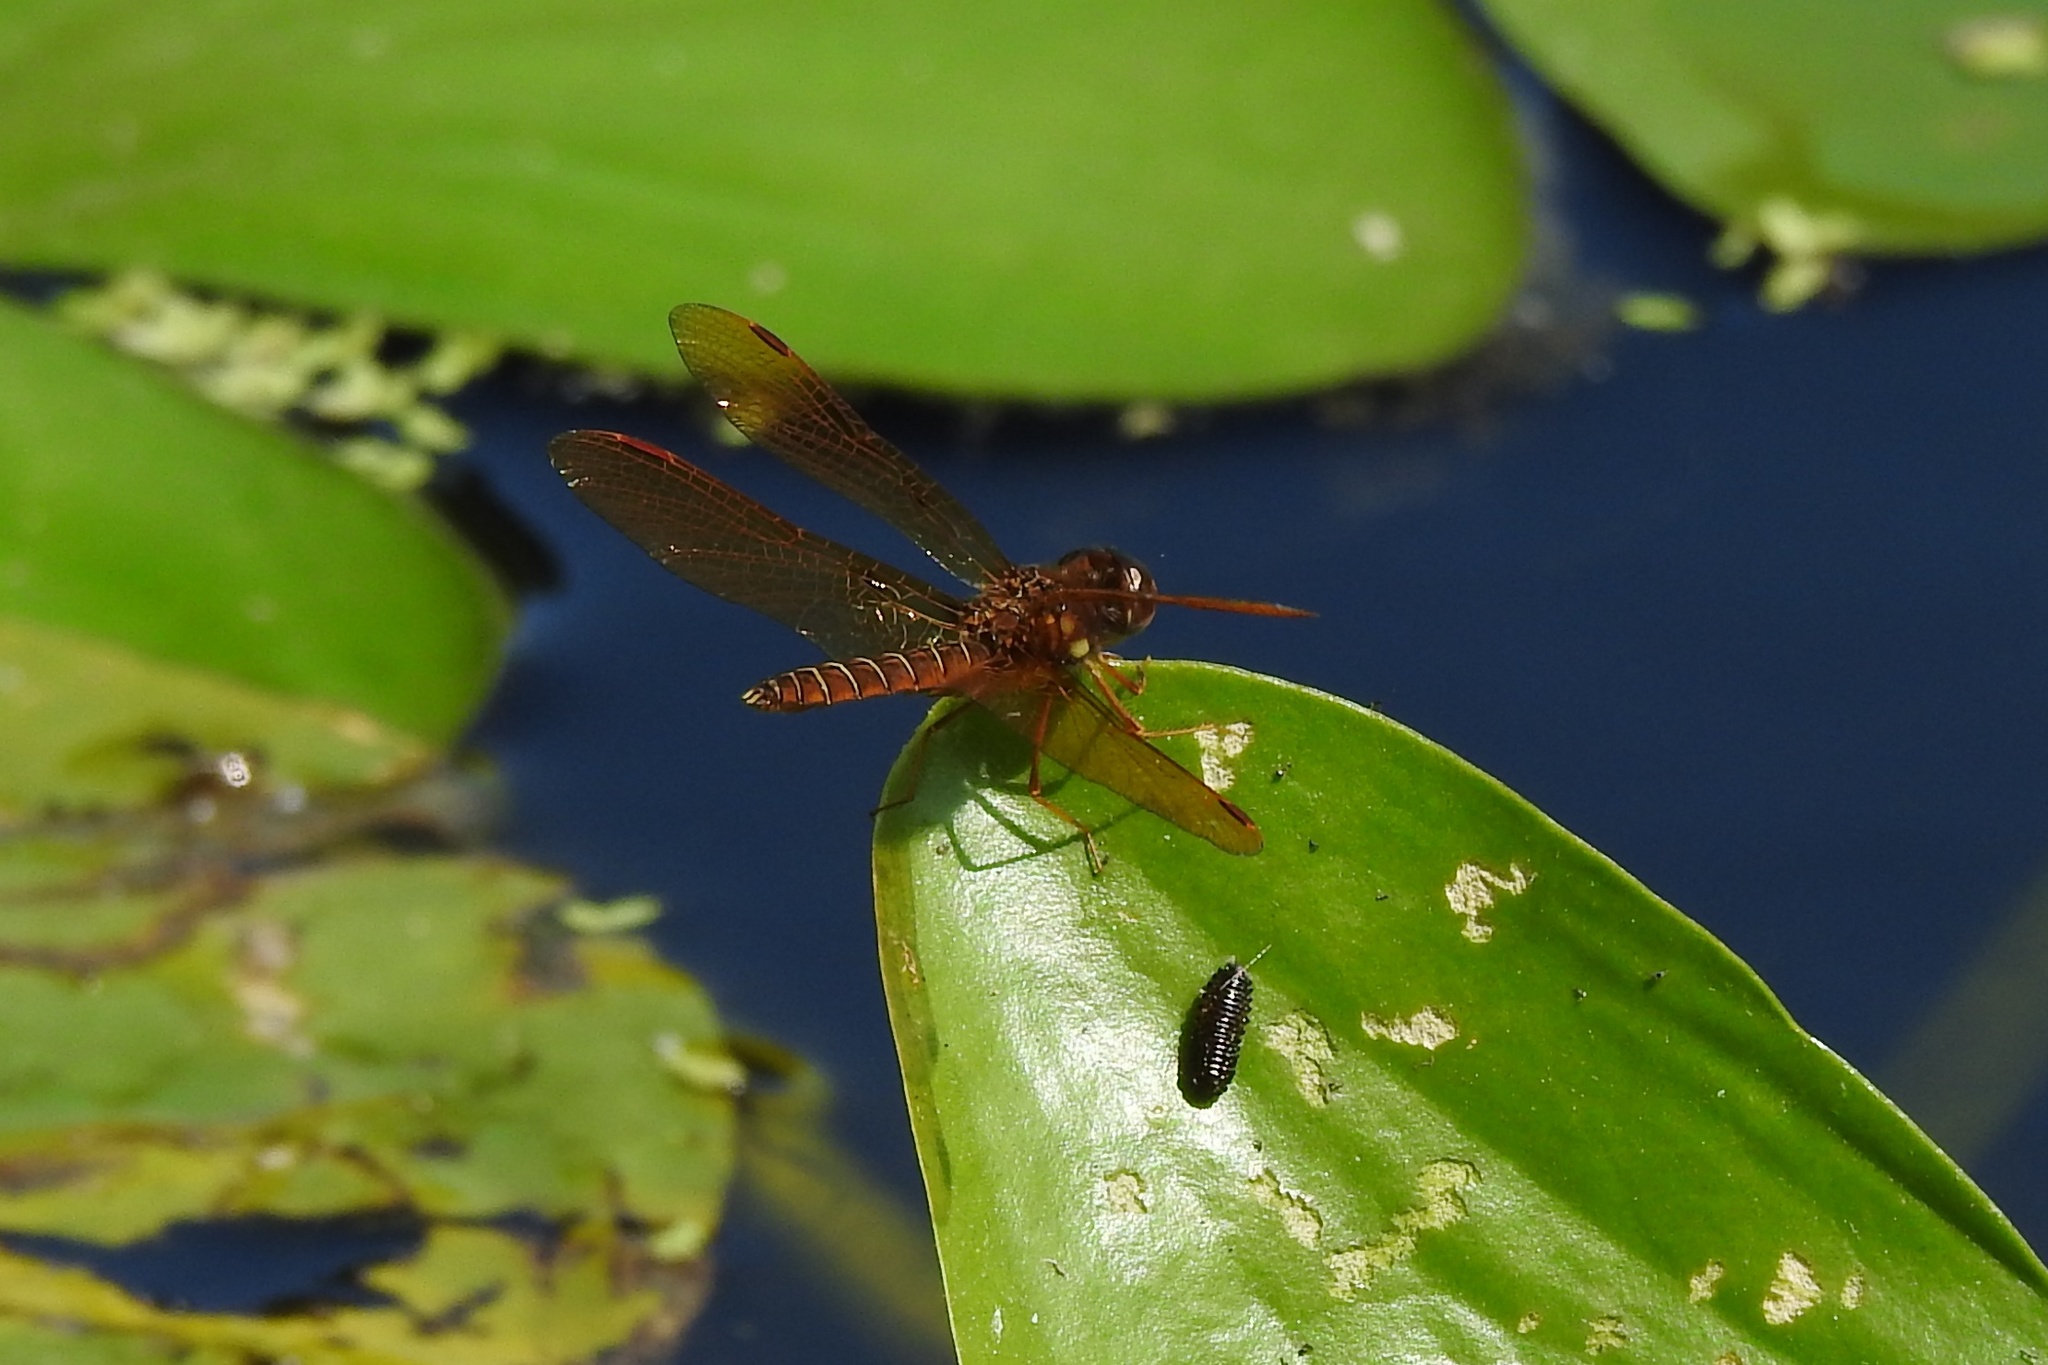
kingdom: Animalia
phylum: Arthropoda
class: Insecta
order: Odonata
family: Libellulidae
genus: Perithemis
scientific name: Perithemis tenera
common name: Eastern amberwing
